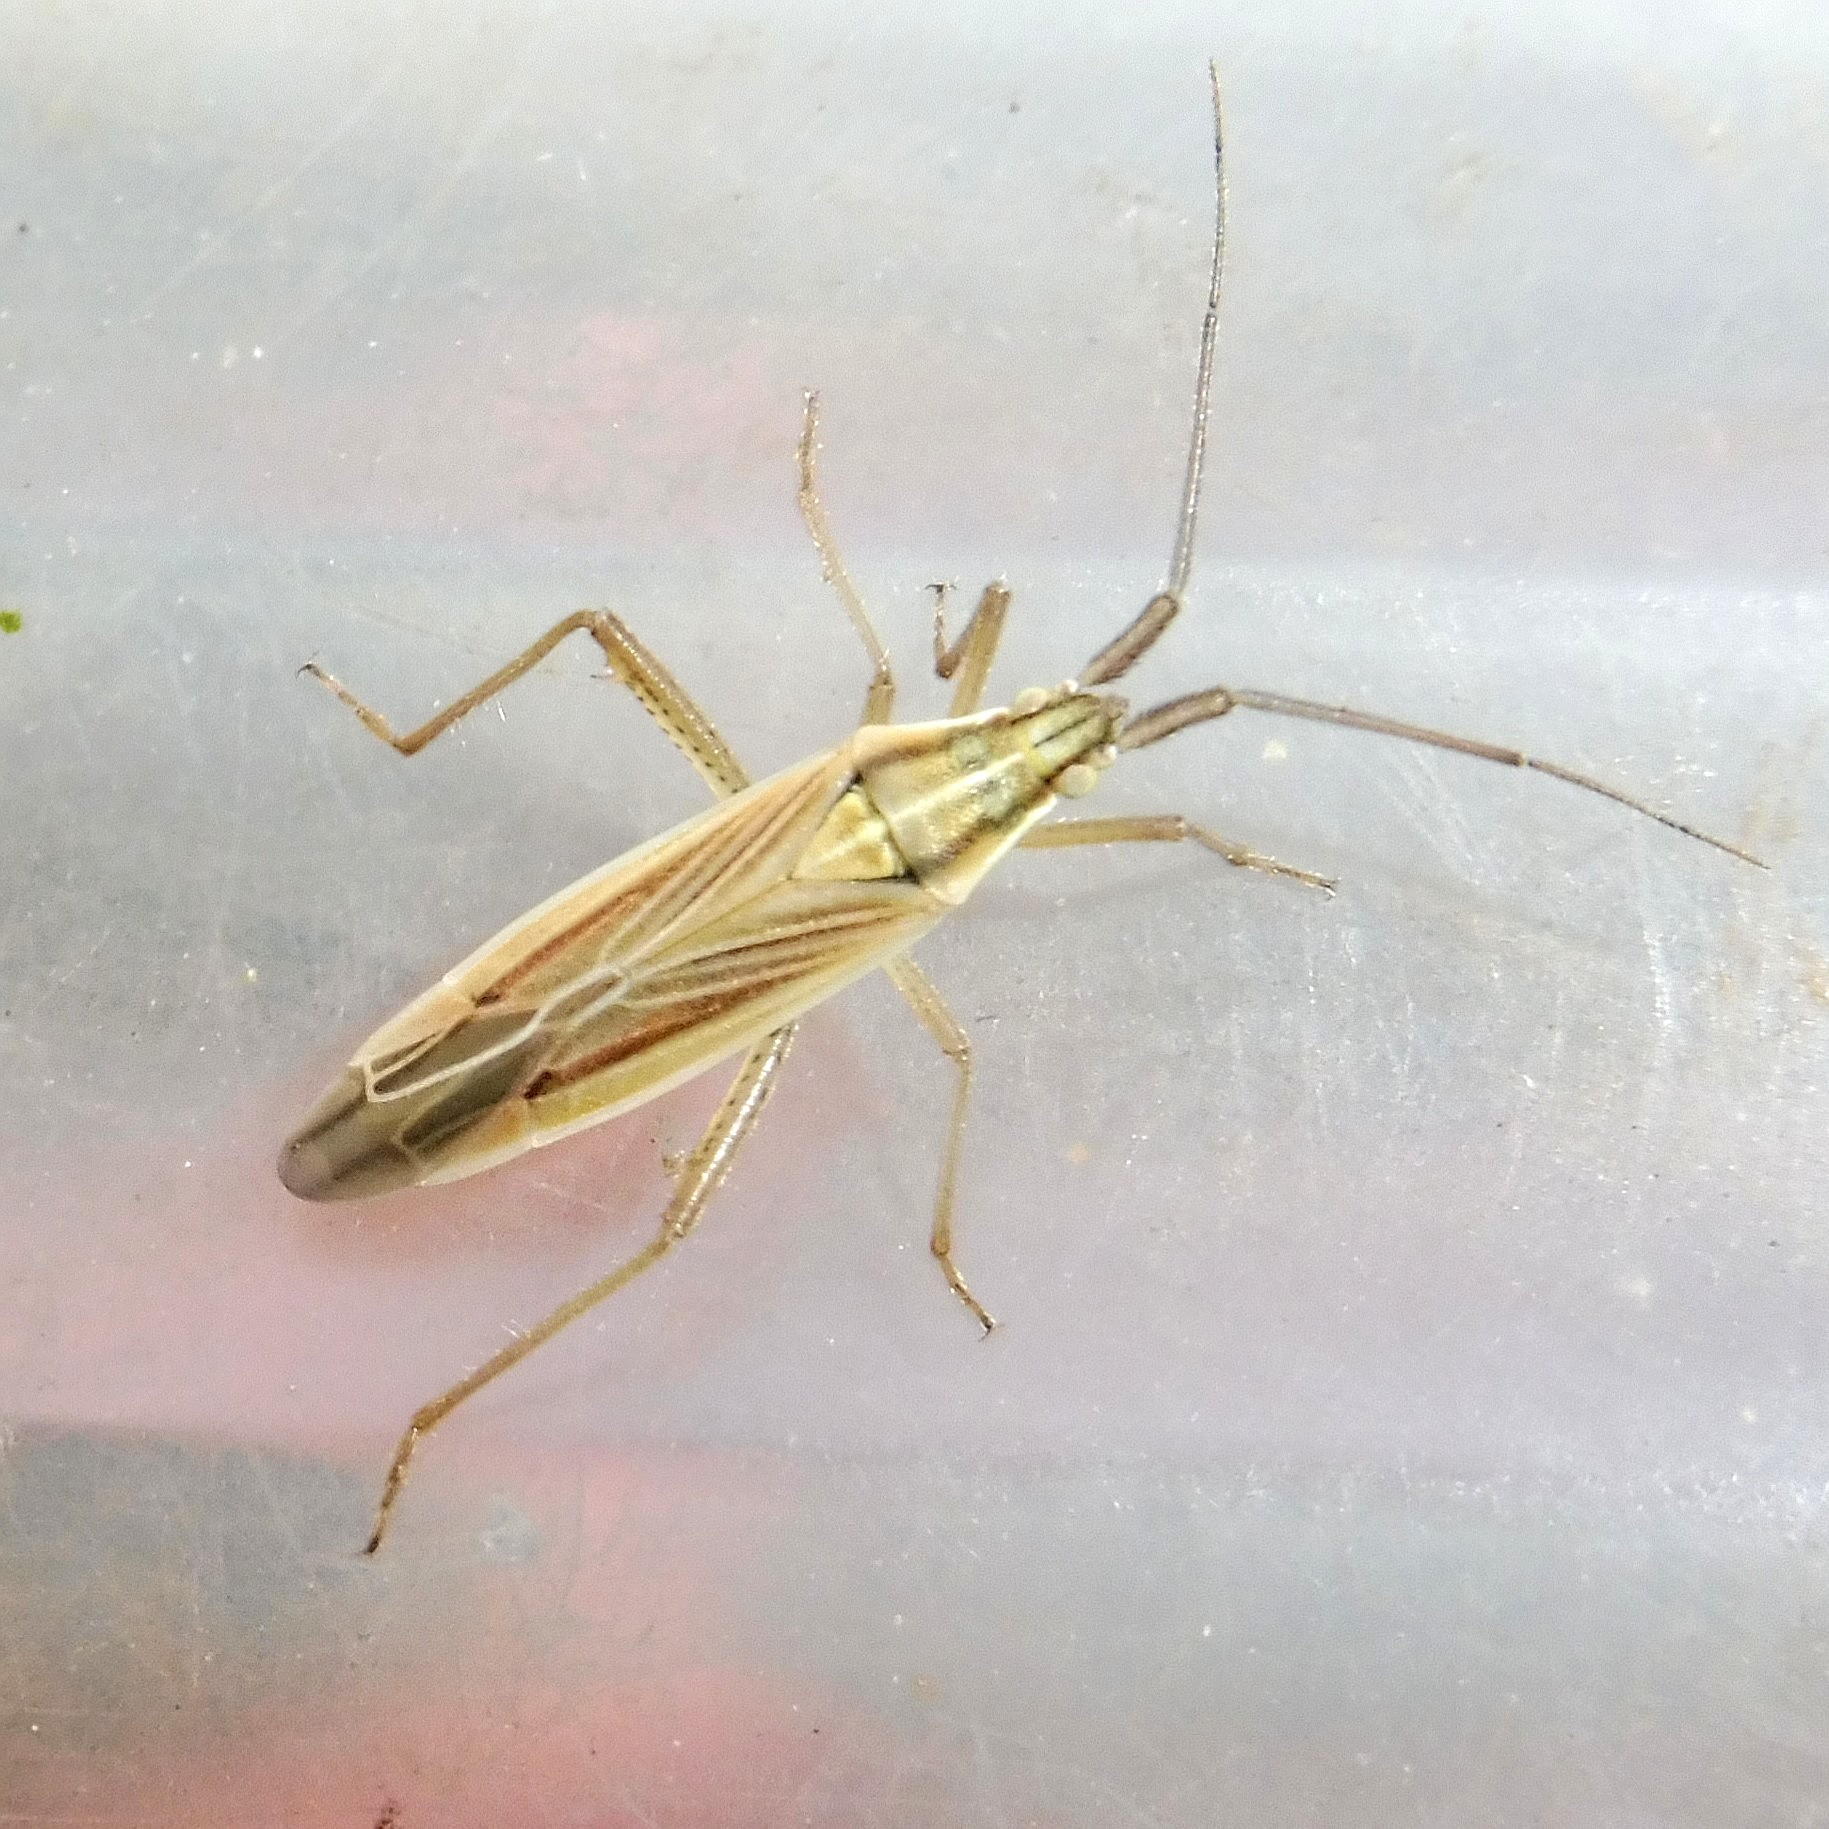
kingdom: Animalia
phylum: Arthropoda
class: Insecta
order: Hemiptera
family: Miridae
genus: Stenodema
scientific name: Stenodema calcarata
